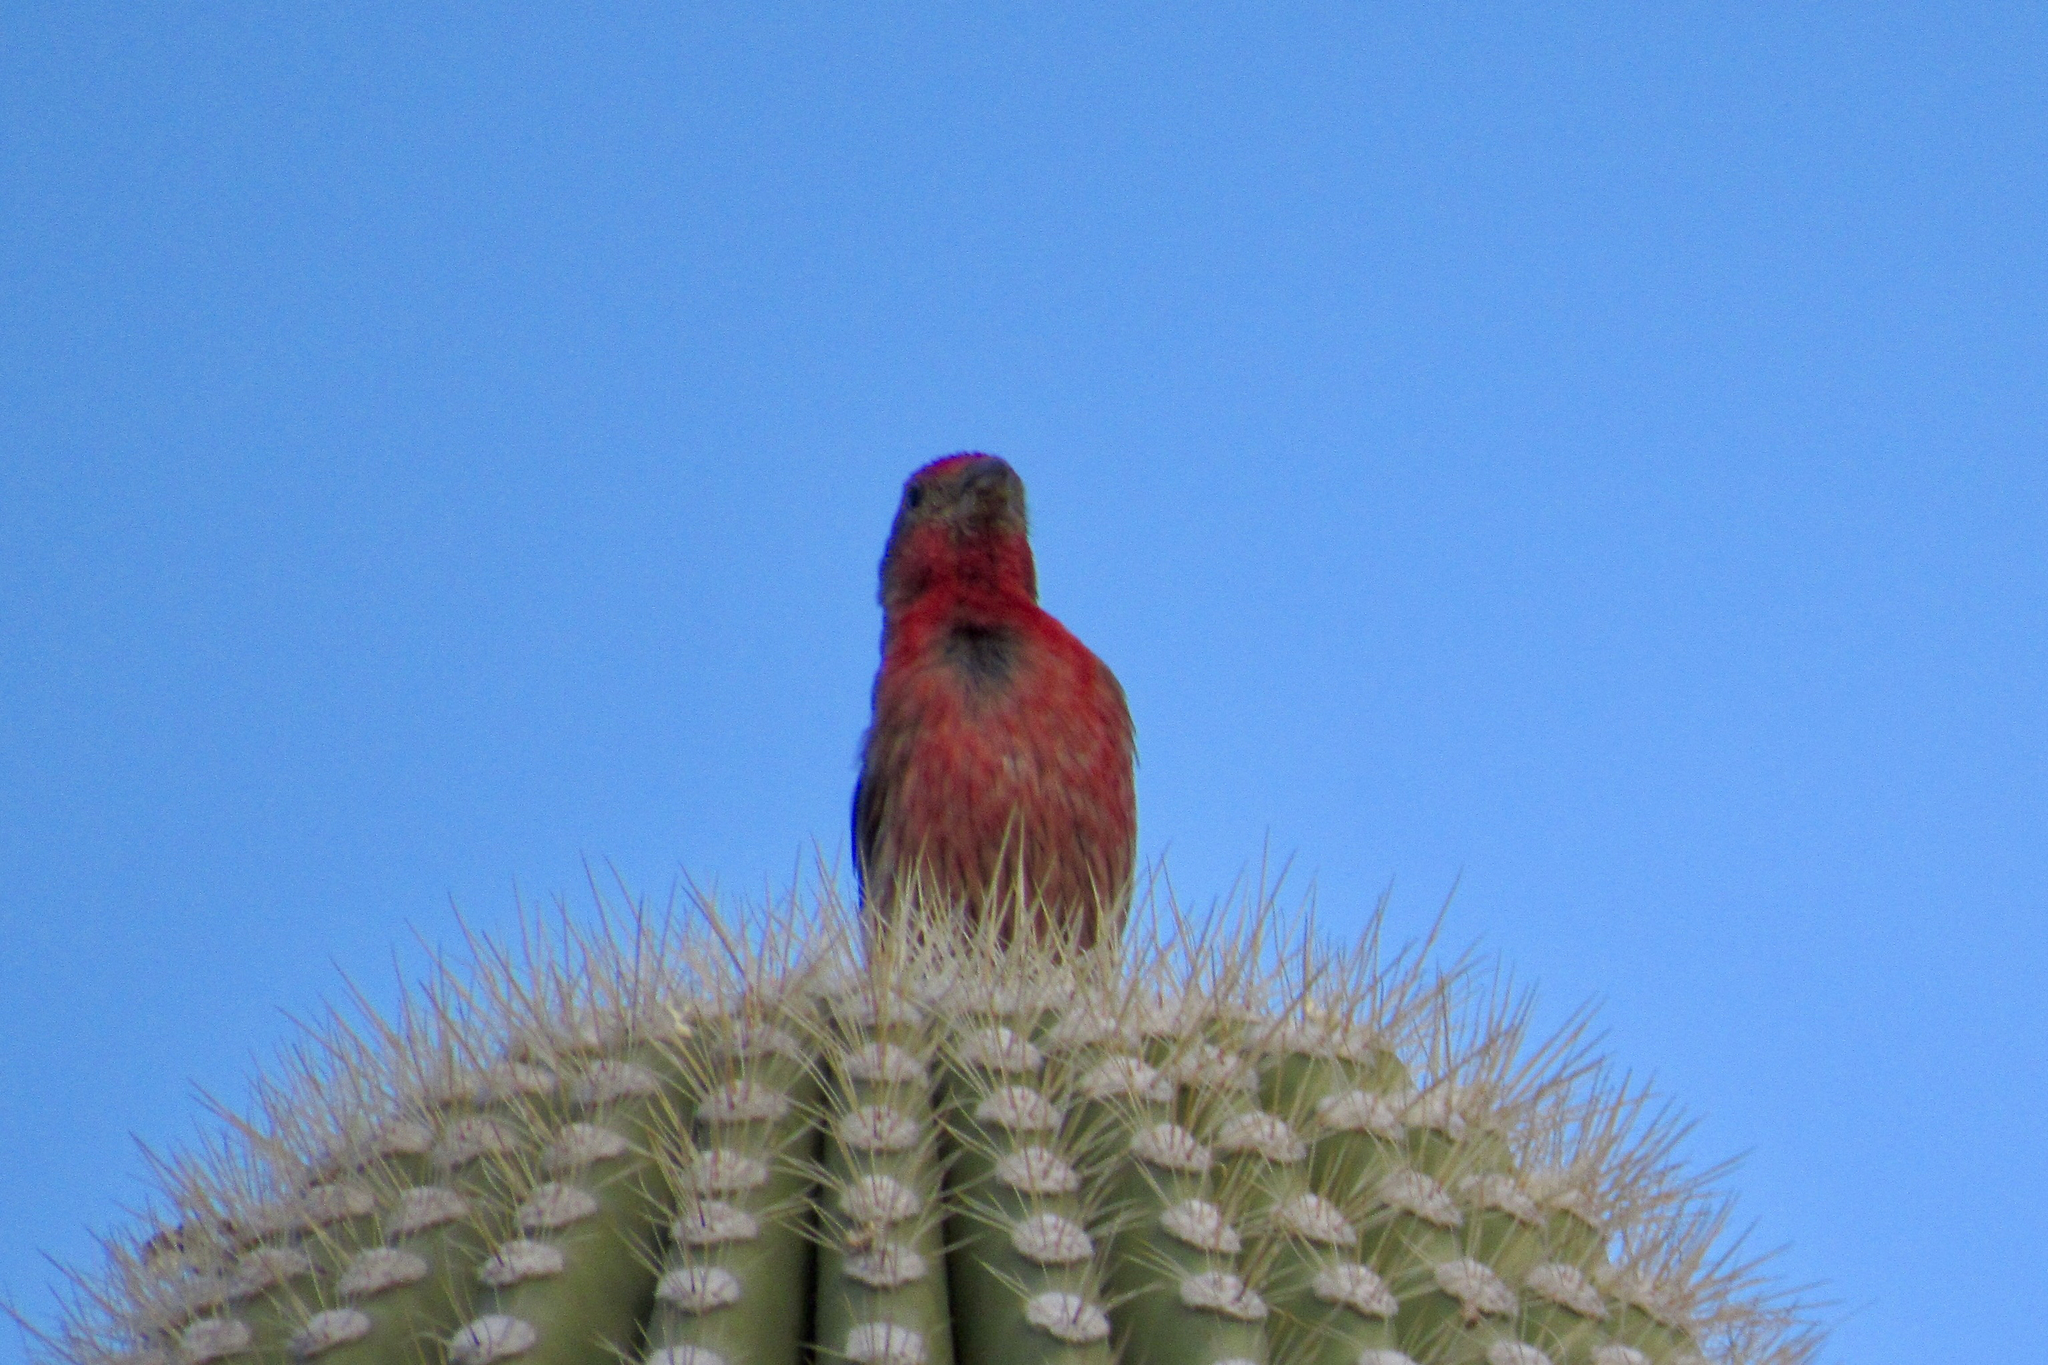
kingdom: Animalia
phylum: Chordata
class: Aves
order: Passeriformes
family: Fringillidae
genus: Haemorhous
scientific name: Haemorhous mexicanus
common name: House finch
